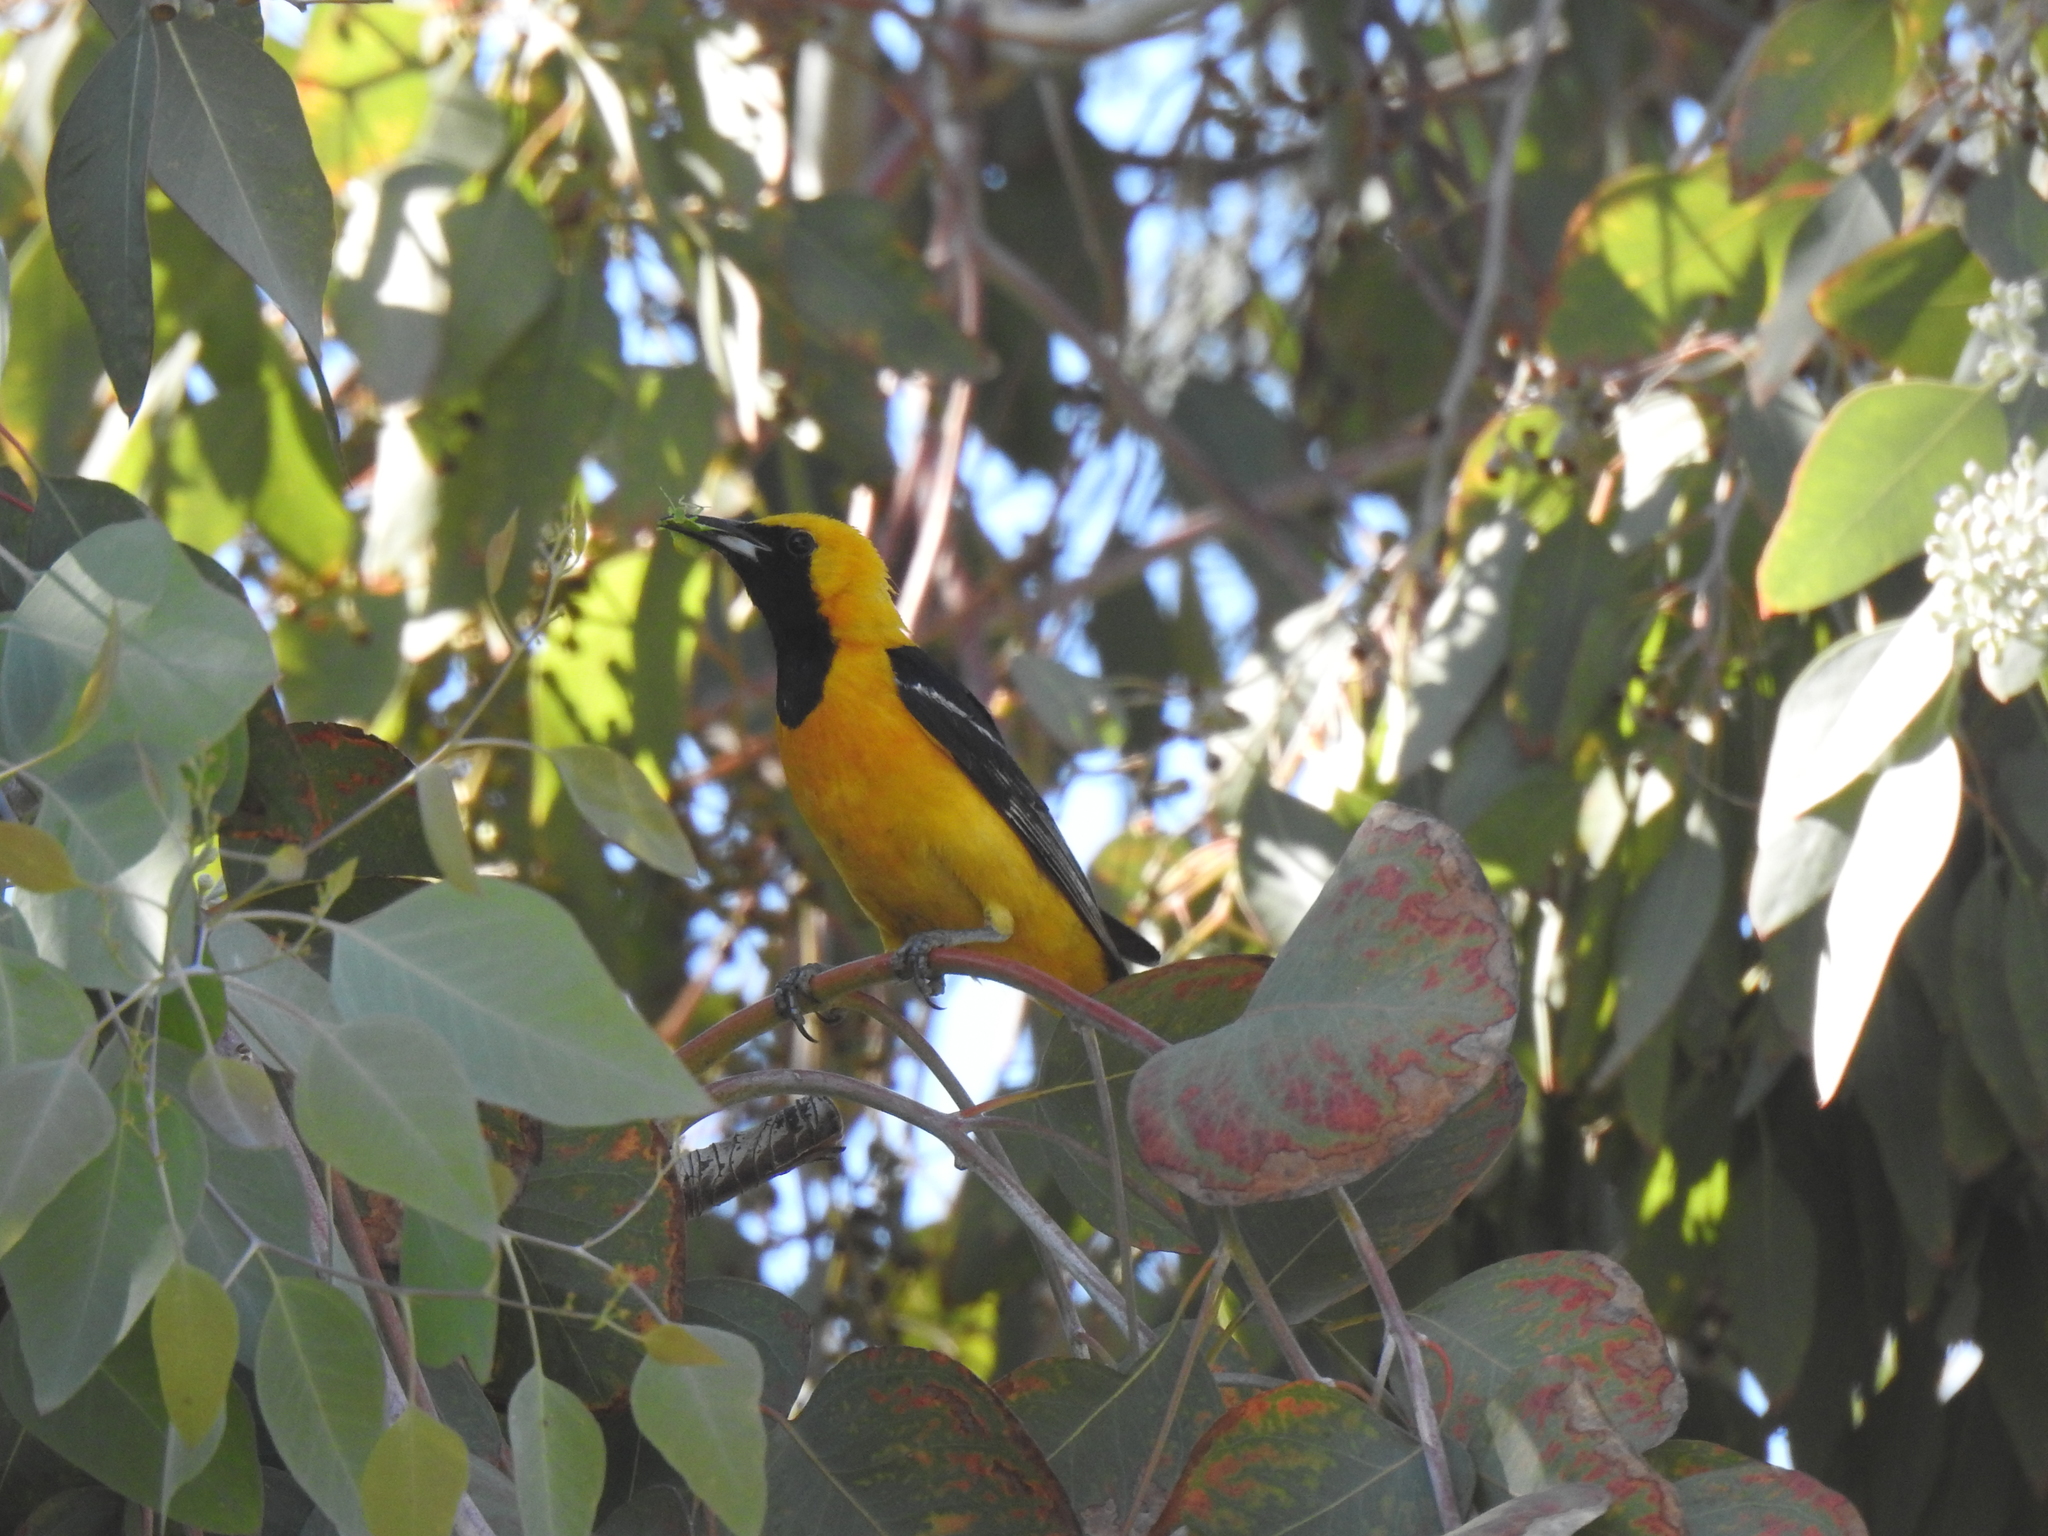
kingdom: Animalia
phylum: Chordata
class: Aves
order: Passeriformes
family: Icteridae
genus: Icterus
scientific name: Icterus cucullatus
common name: Hooded oriole
